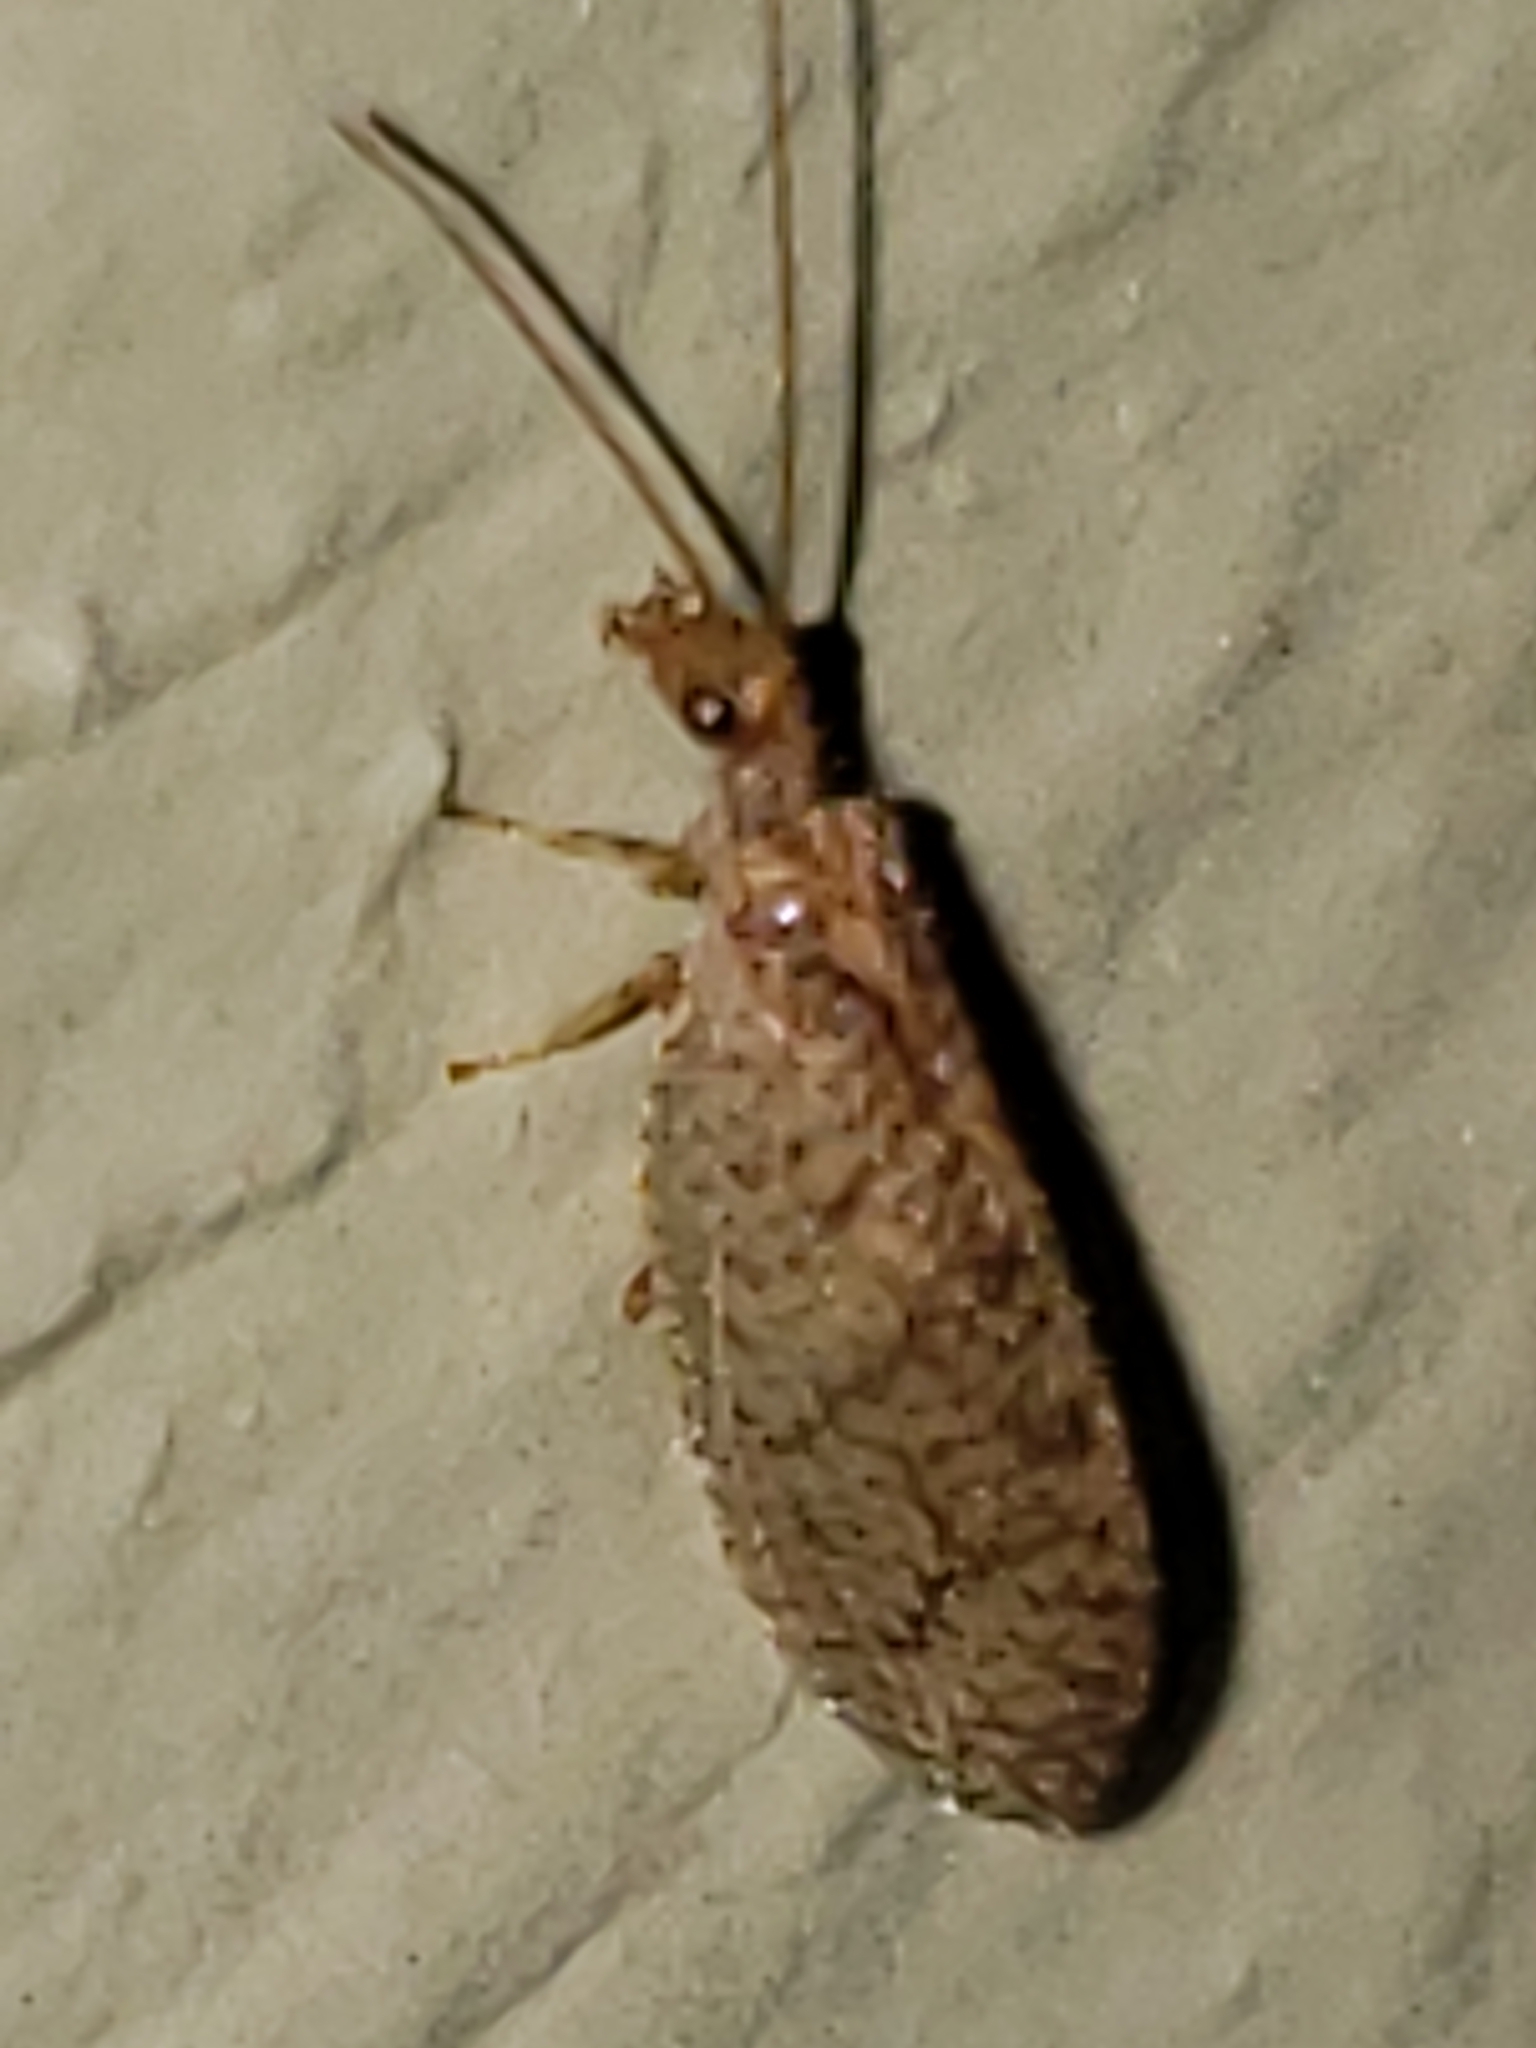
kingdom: Animalia
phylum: Arthropoda
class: Insecta
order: Neuroptera
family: Hemerobiidae
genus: Micromus
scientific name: Micromus posticus
